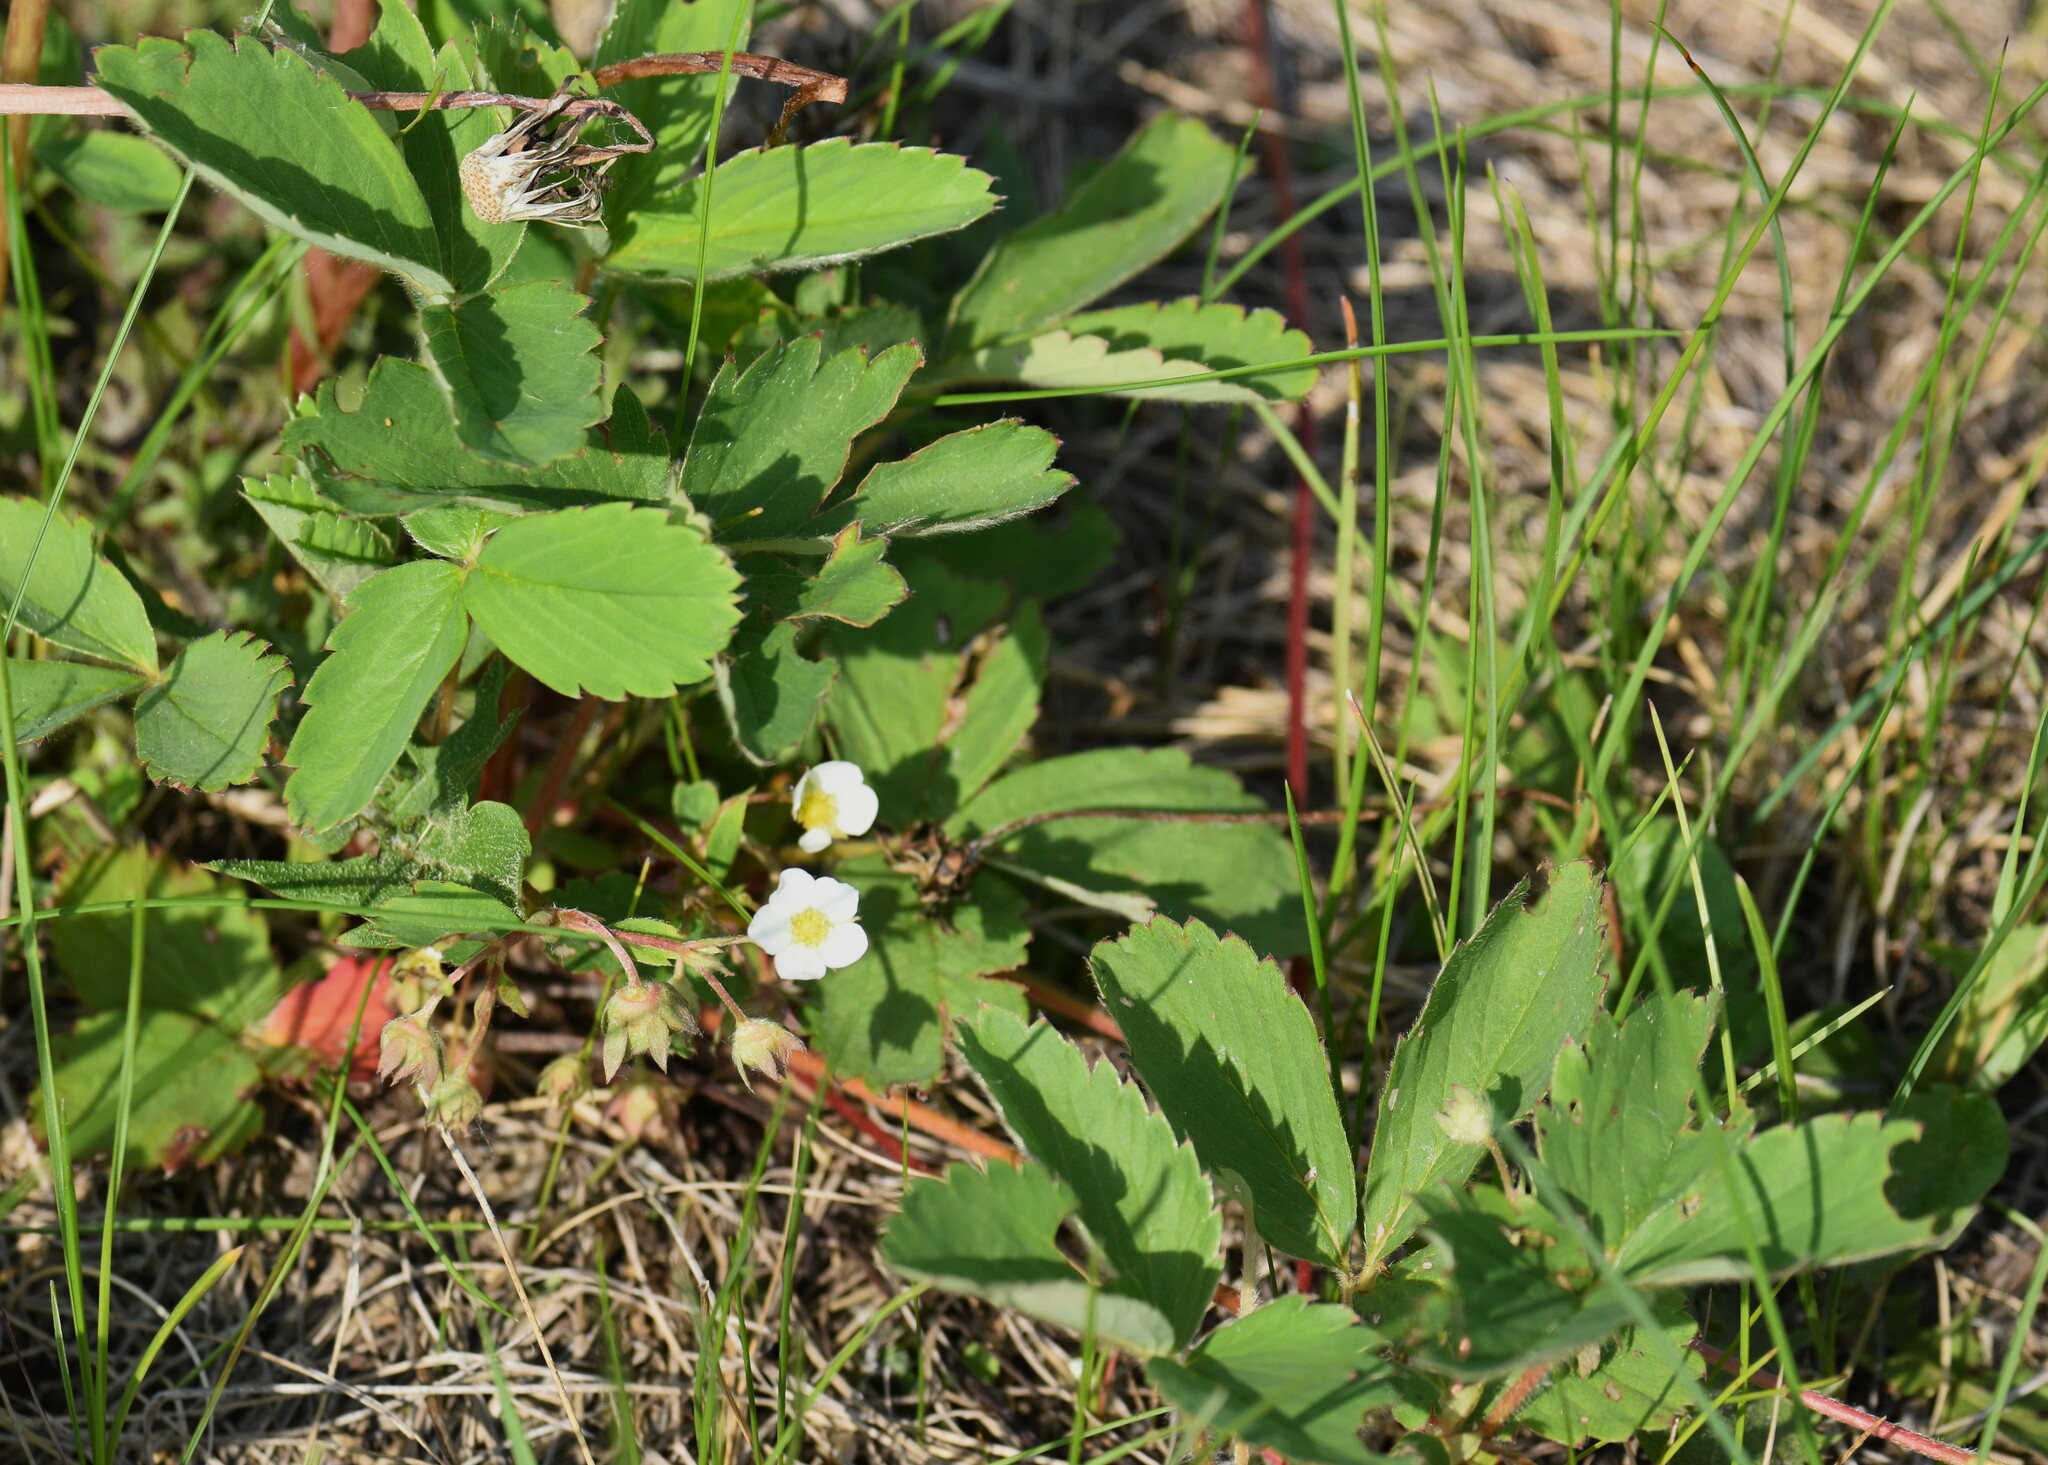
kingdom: Plantae
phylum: Tracheophyta
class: Magnoliopsida
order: Rosales
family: Rosaceae
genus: Fragaria
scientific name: Fragaria virginiana
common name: Thickleaved wild strawberry
